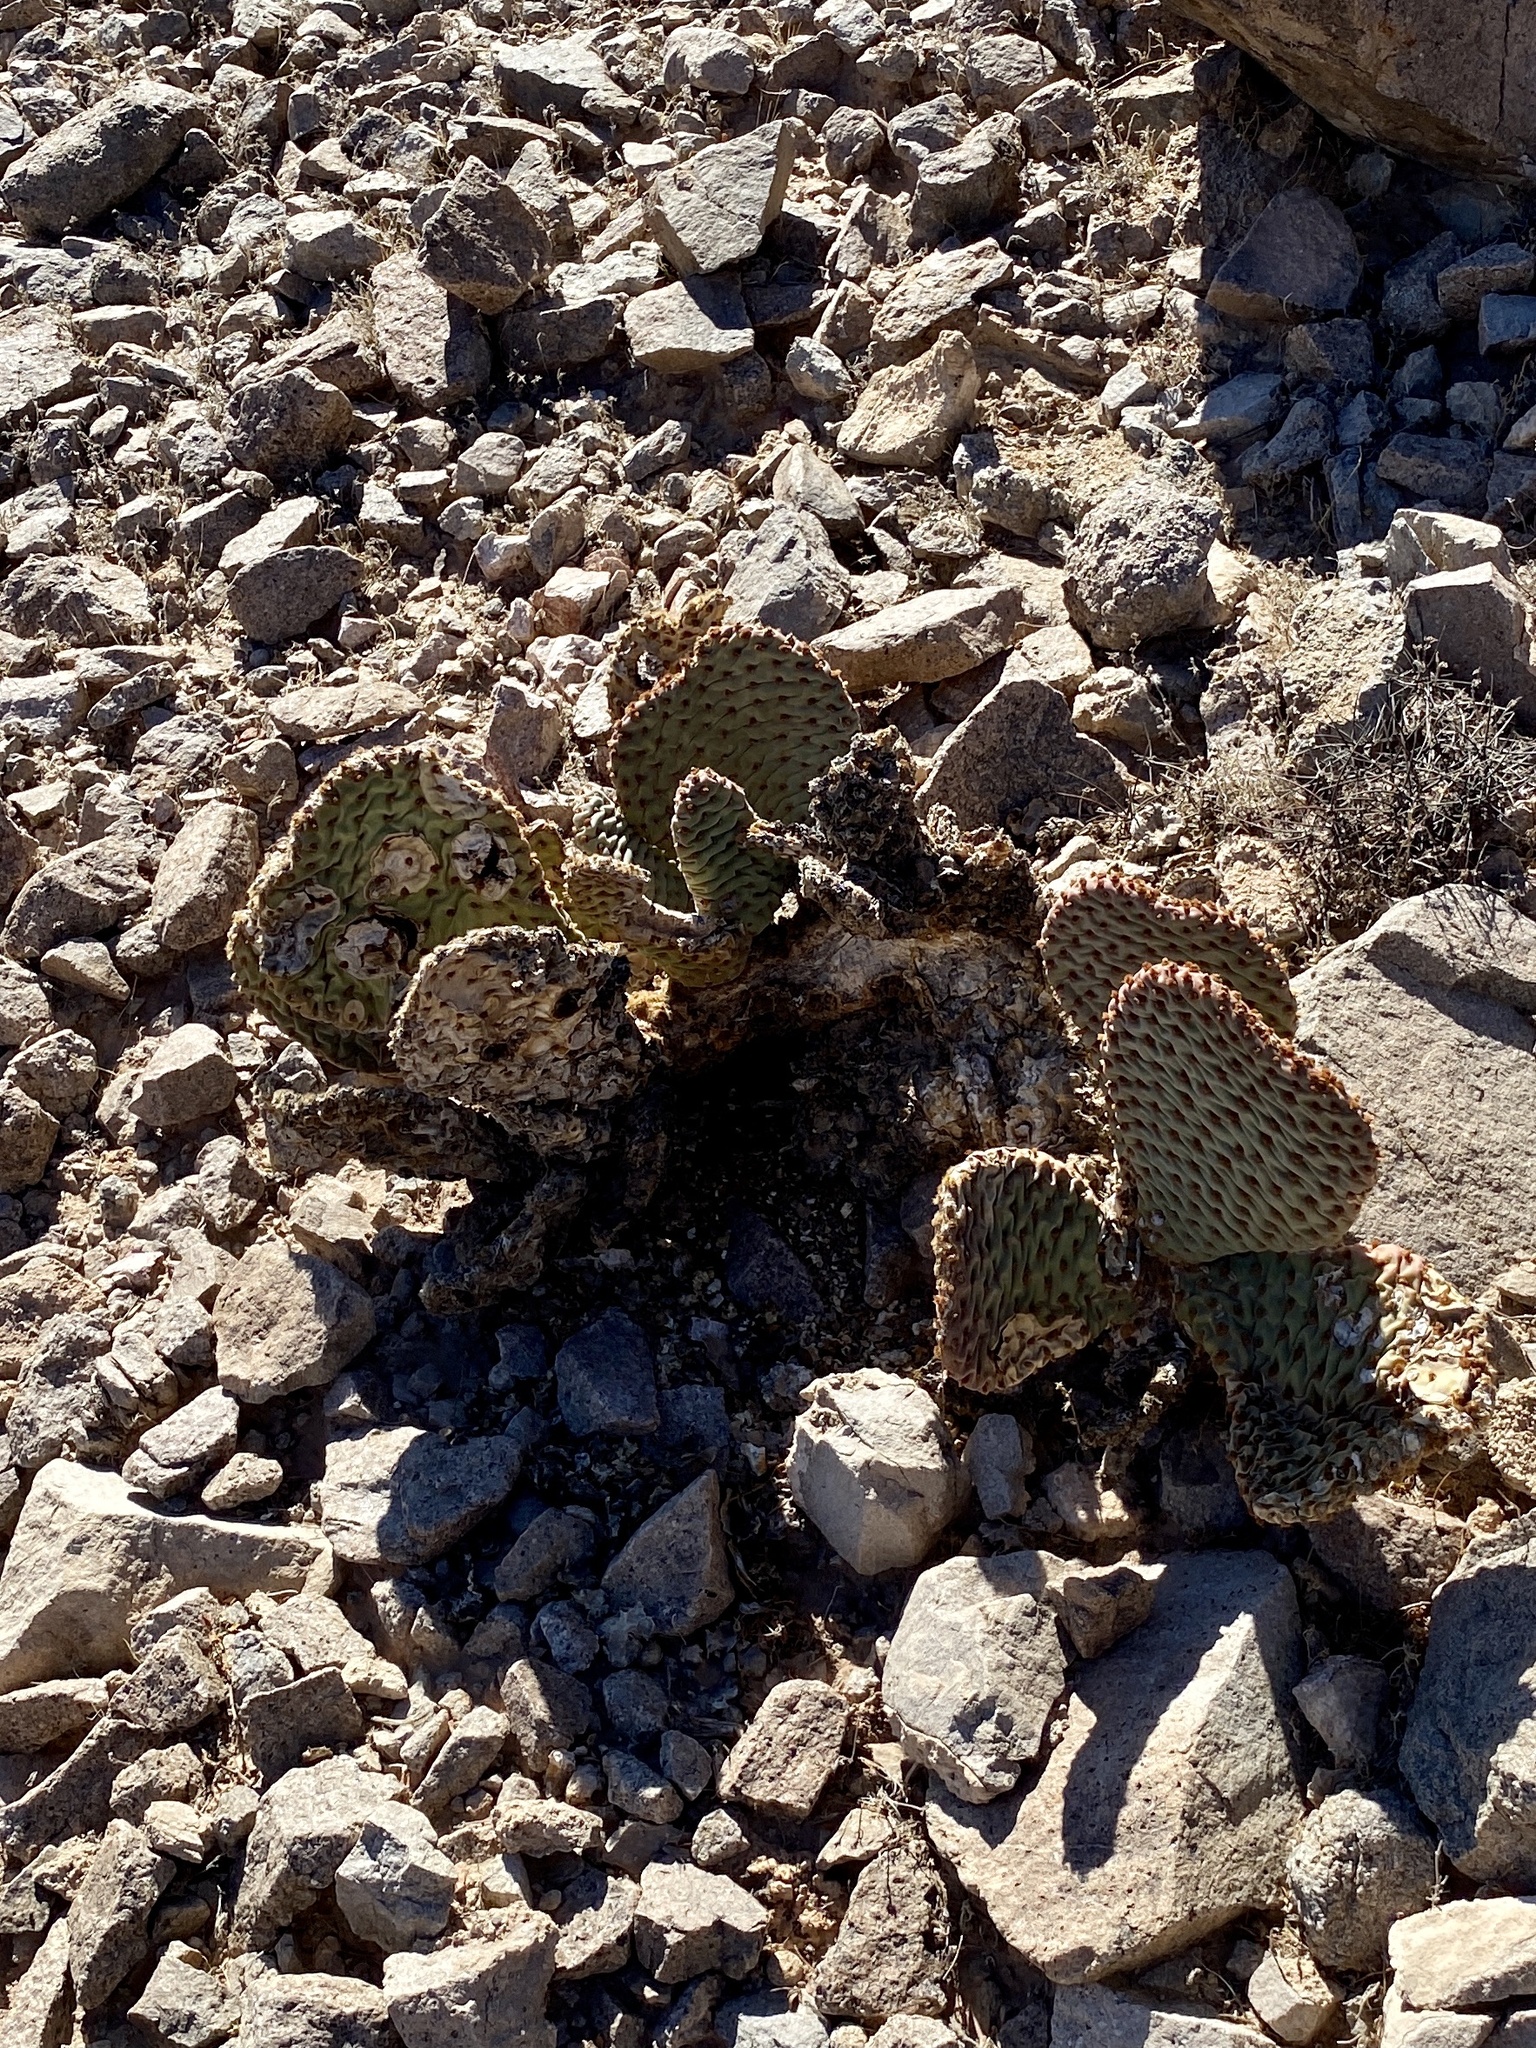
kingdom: Plantae
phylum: Tracheophyta
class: Magnoliopsida
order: Caryophyllales
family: Cactaceae
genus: Opuntia
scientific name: Opuntia basilaris
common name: Beavertail prickly-pear
